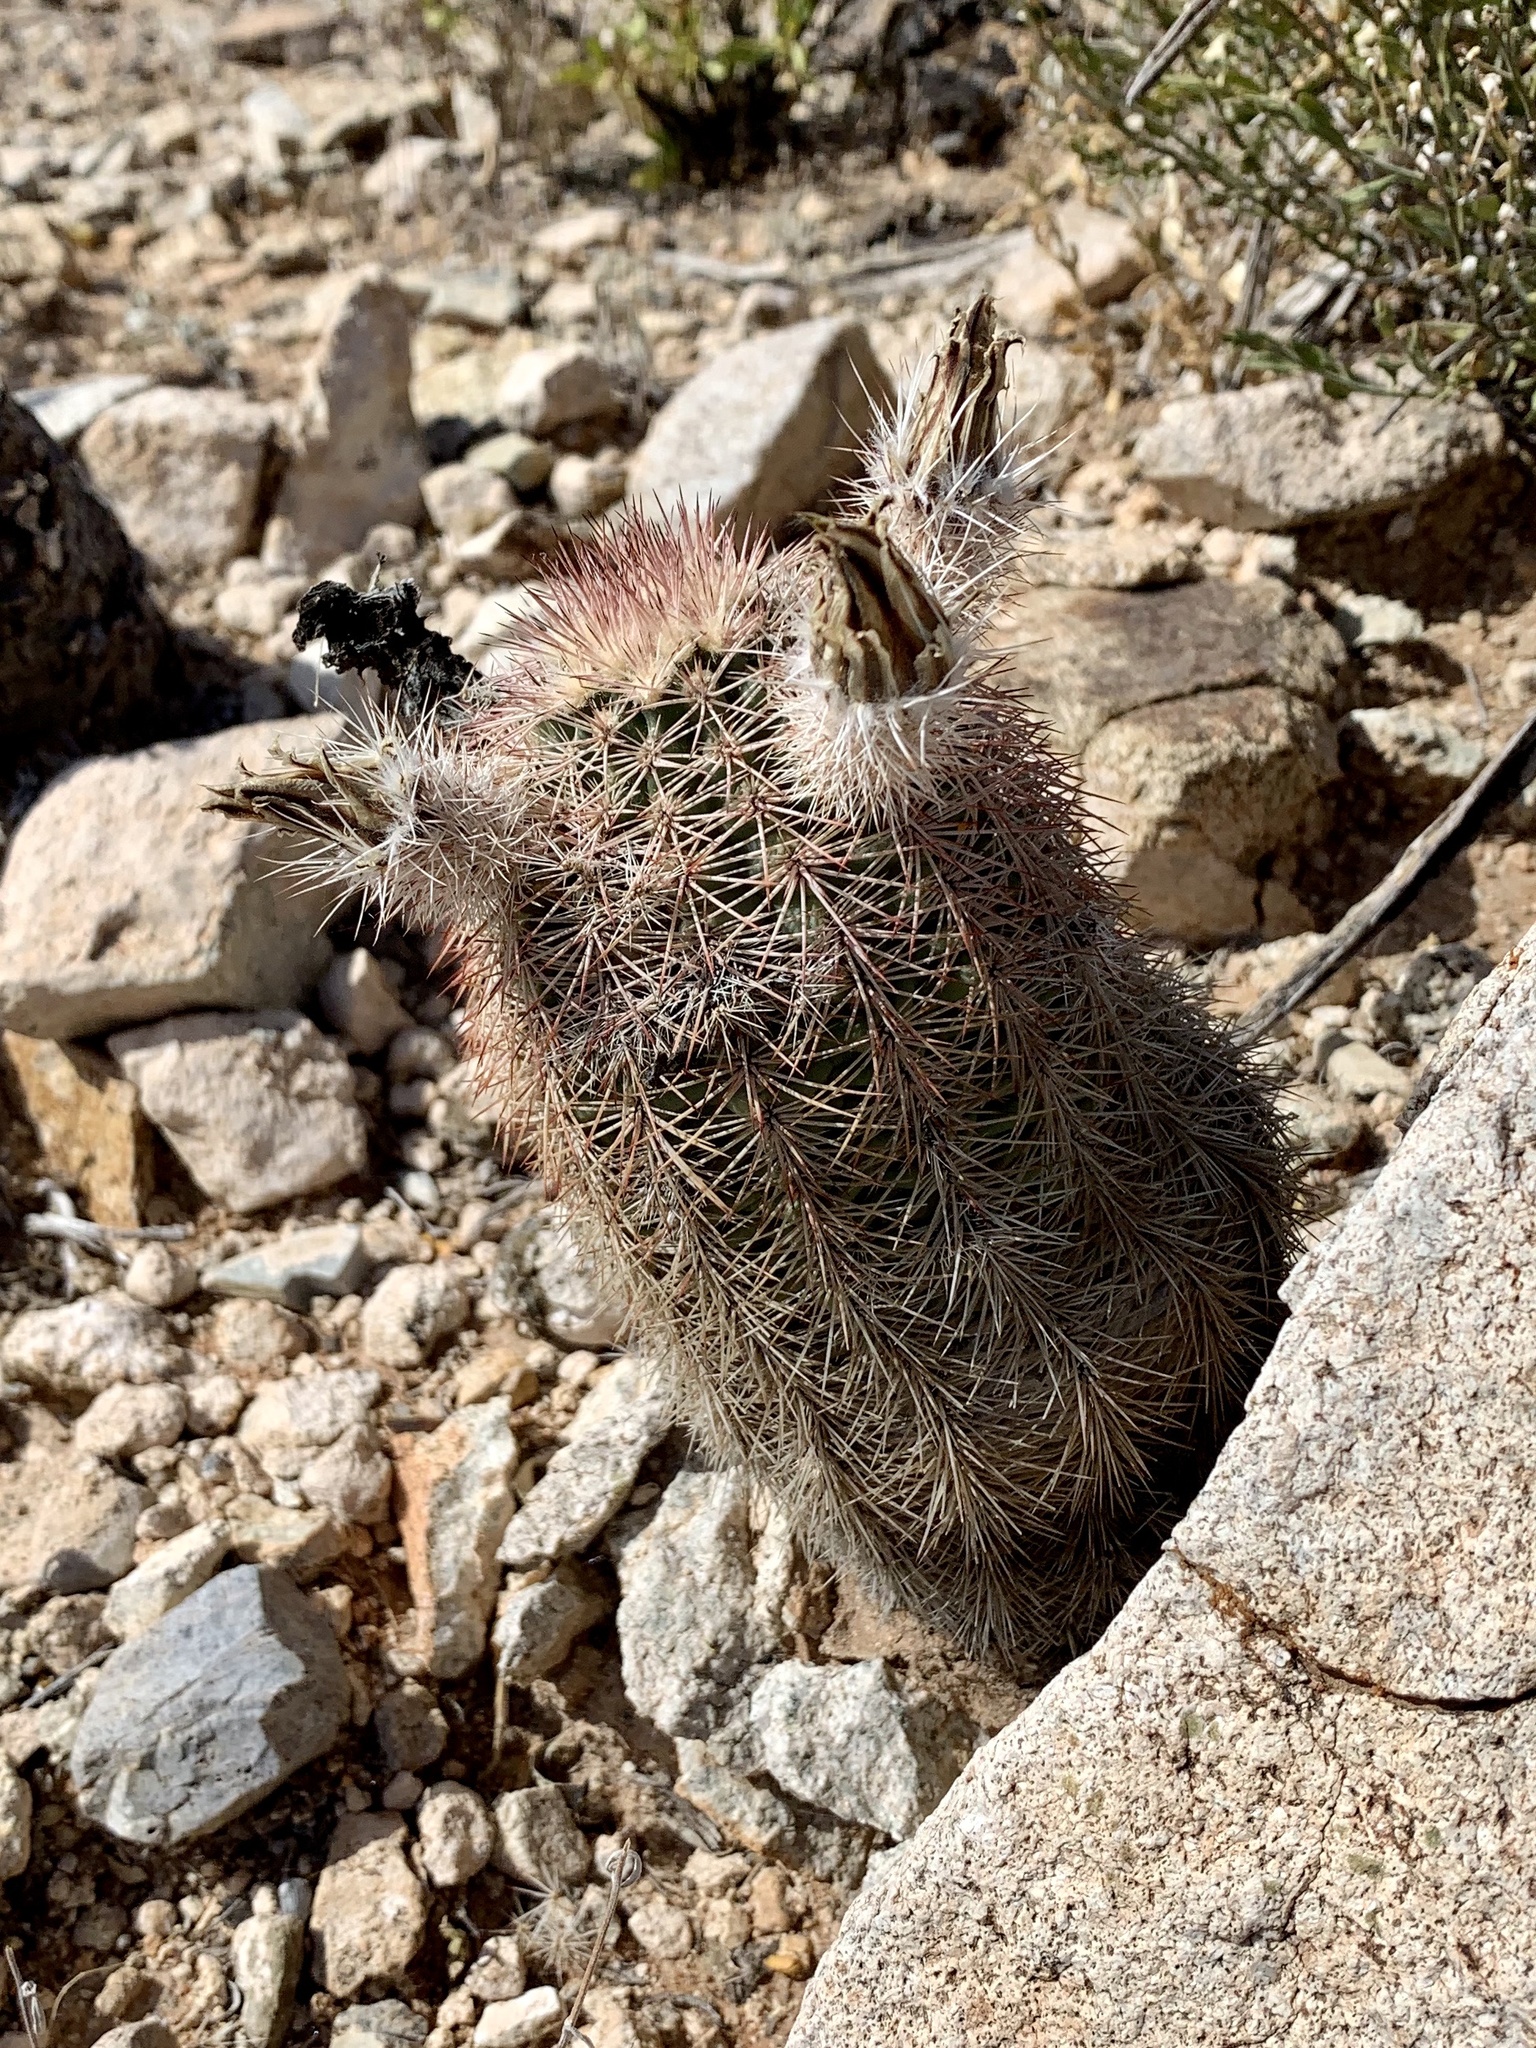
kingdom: Plantae
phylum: Tracheophyta
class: Magnoliopsida
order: Caryophyllales
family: Cactaceae
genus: Echinocereus
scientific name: Echinocereus dasyacanthus
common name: Spiny hedgehog cactus
